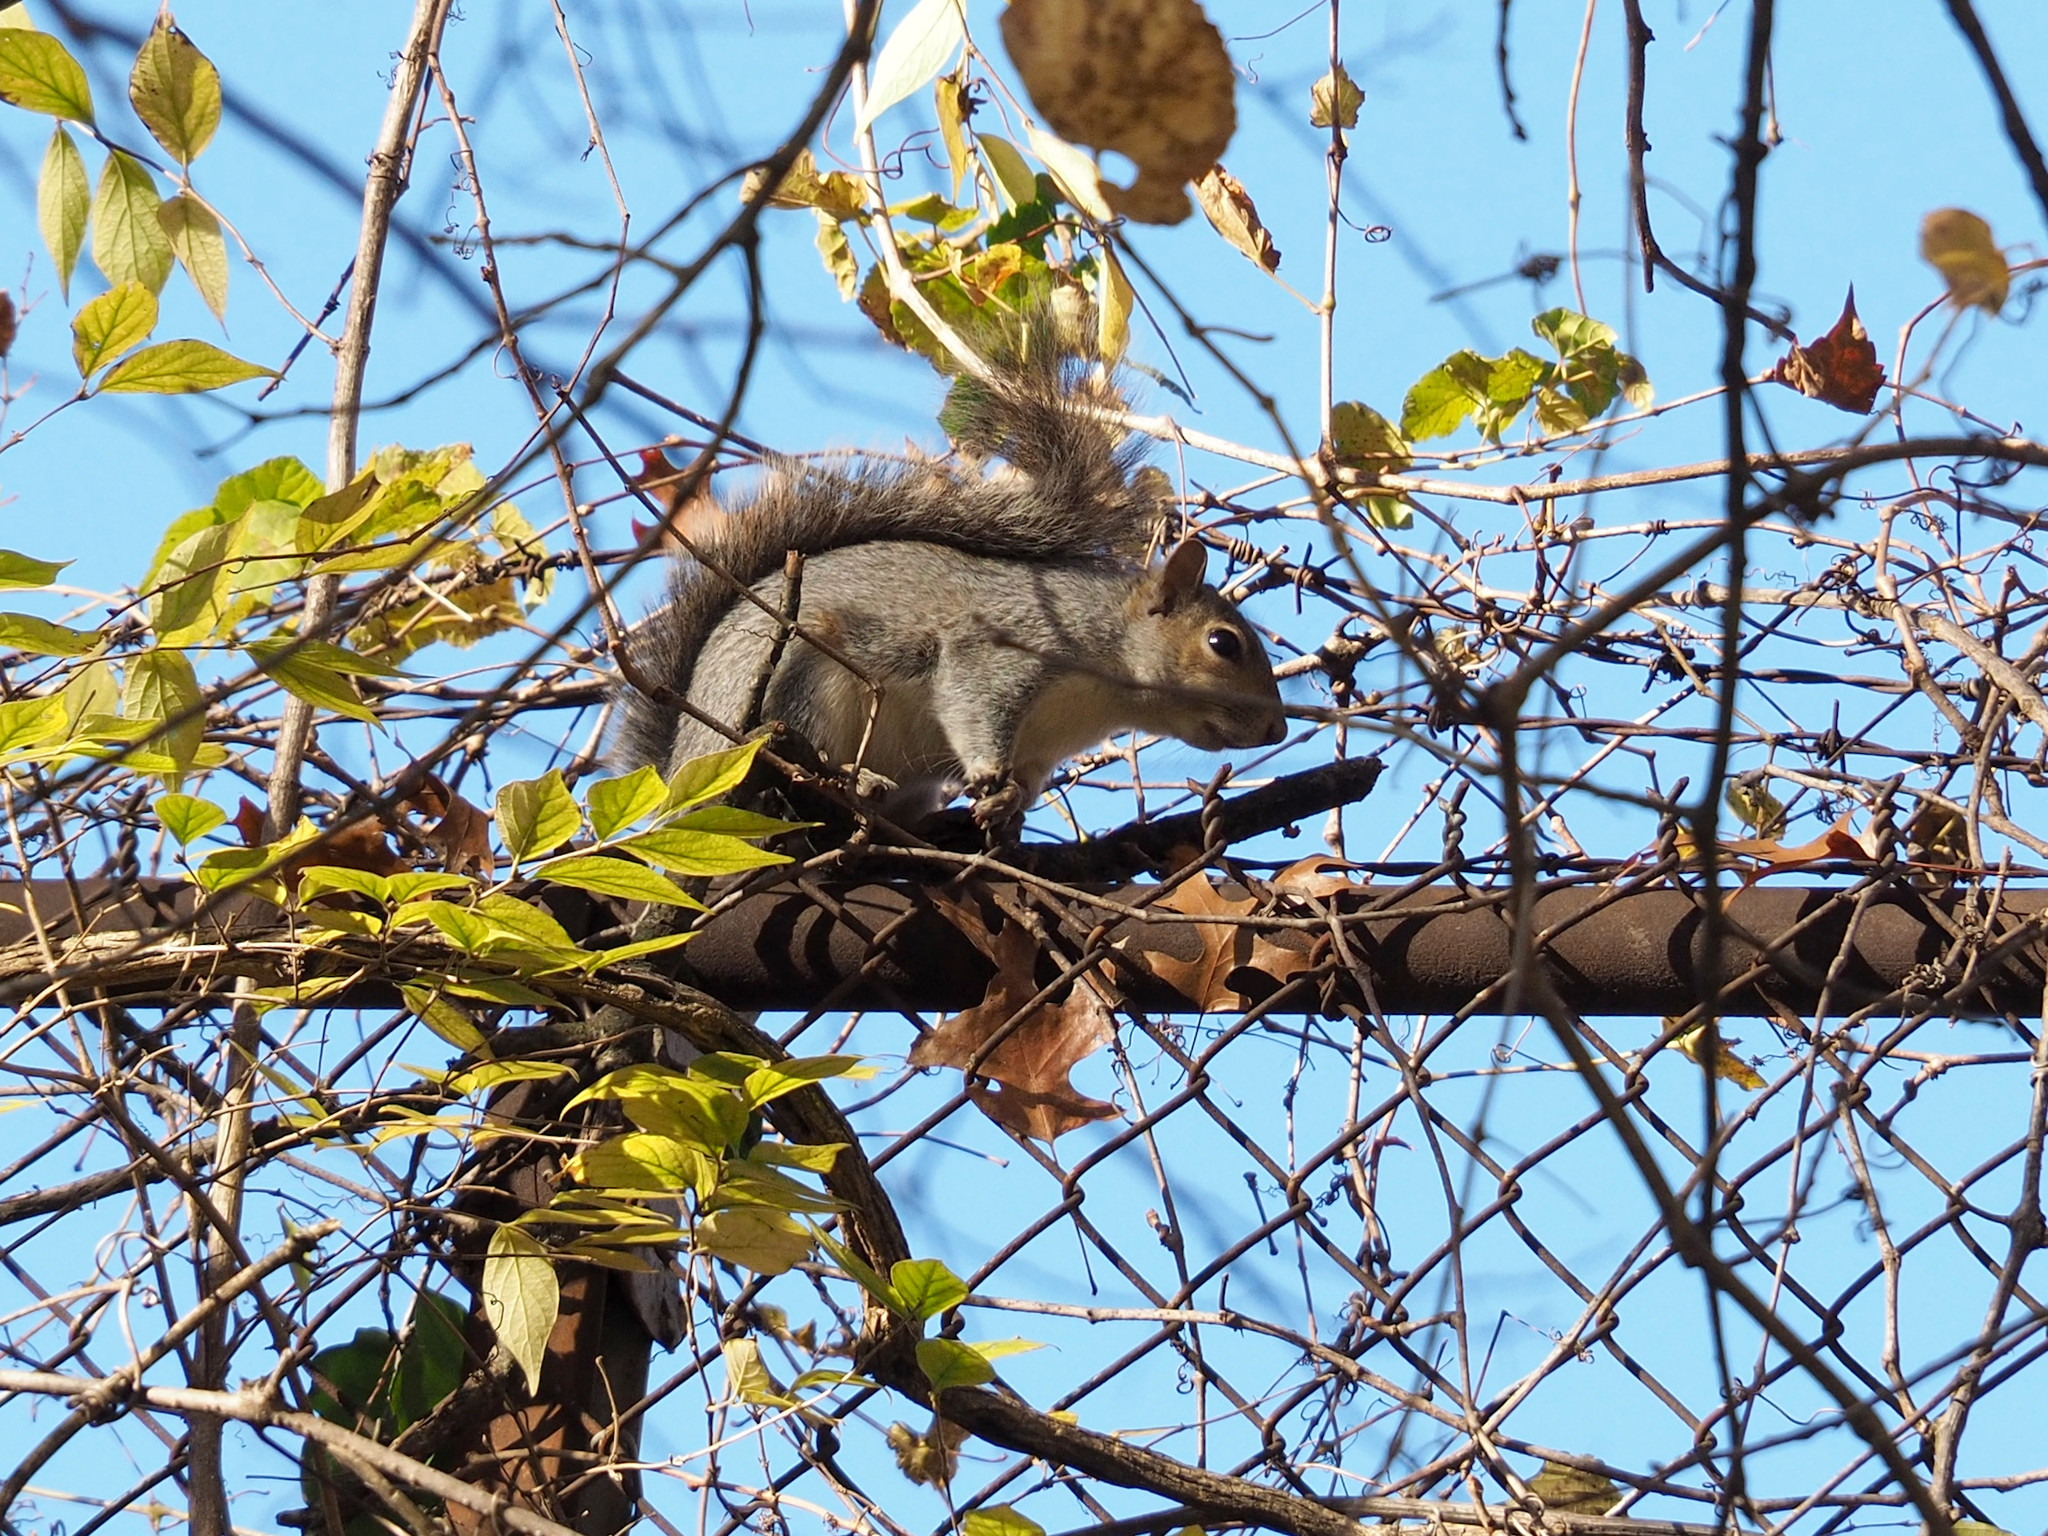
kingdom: Animalia
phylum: Chordata
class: Mammalia
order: Rodentia
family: Sciuridae
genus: Sciurus
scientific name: Sciurus carolinensis
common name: Eastern gray squirrel
